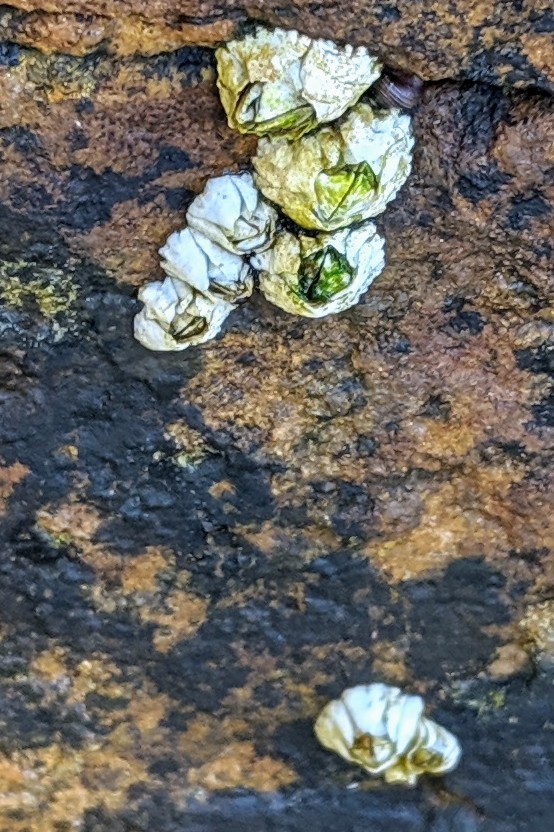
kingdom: Animalia
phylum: Arthropoda
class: Maxillopoda
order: Sessilia
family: Archaeobalanidae
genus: Semibalanus
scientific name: Semibalanus balanoides
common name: Acorn barnacle
